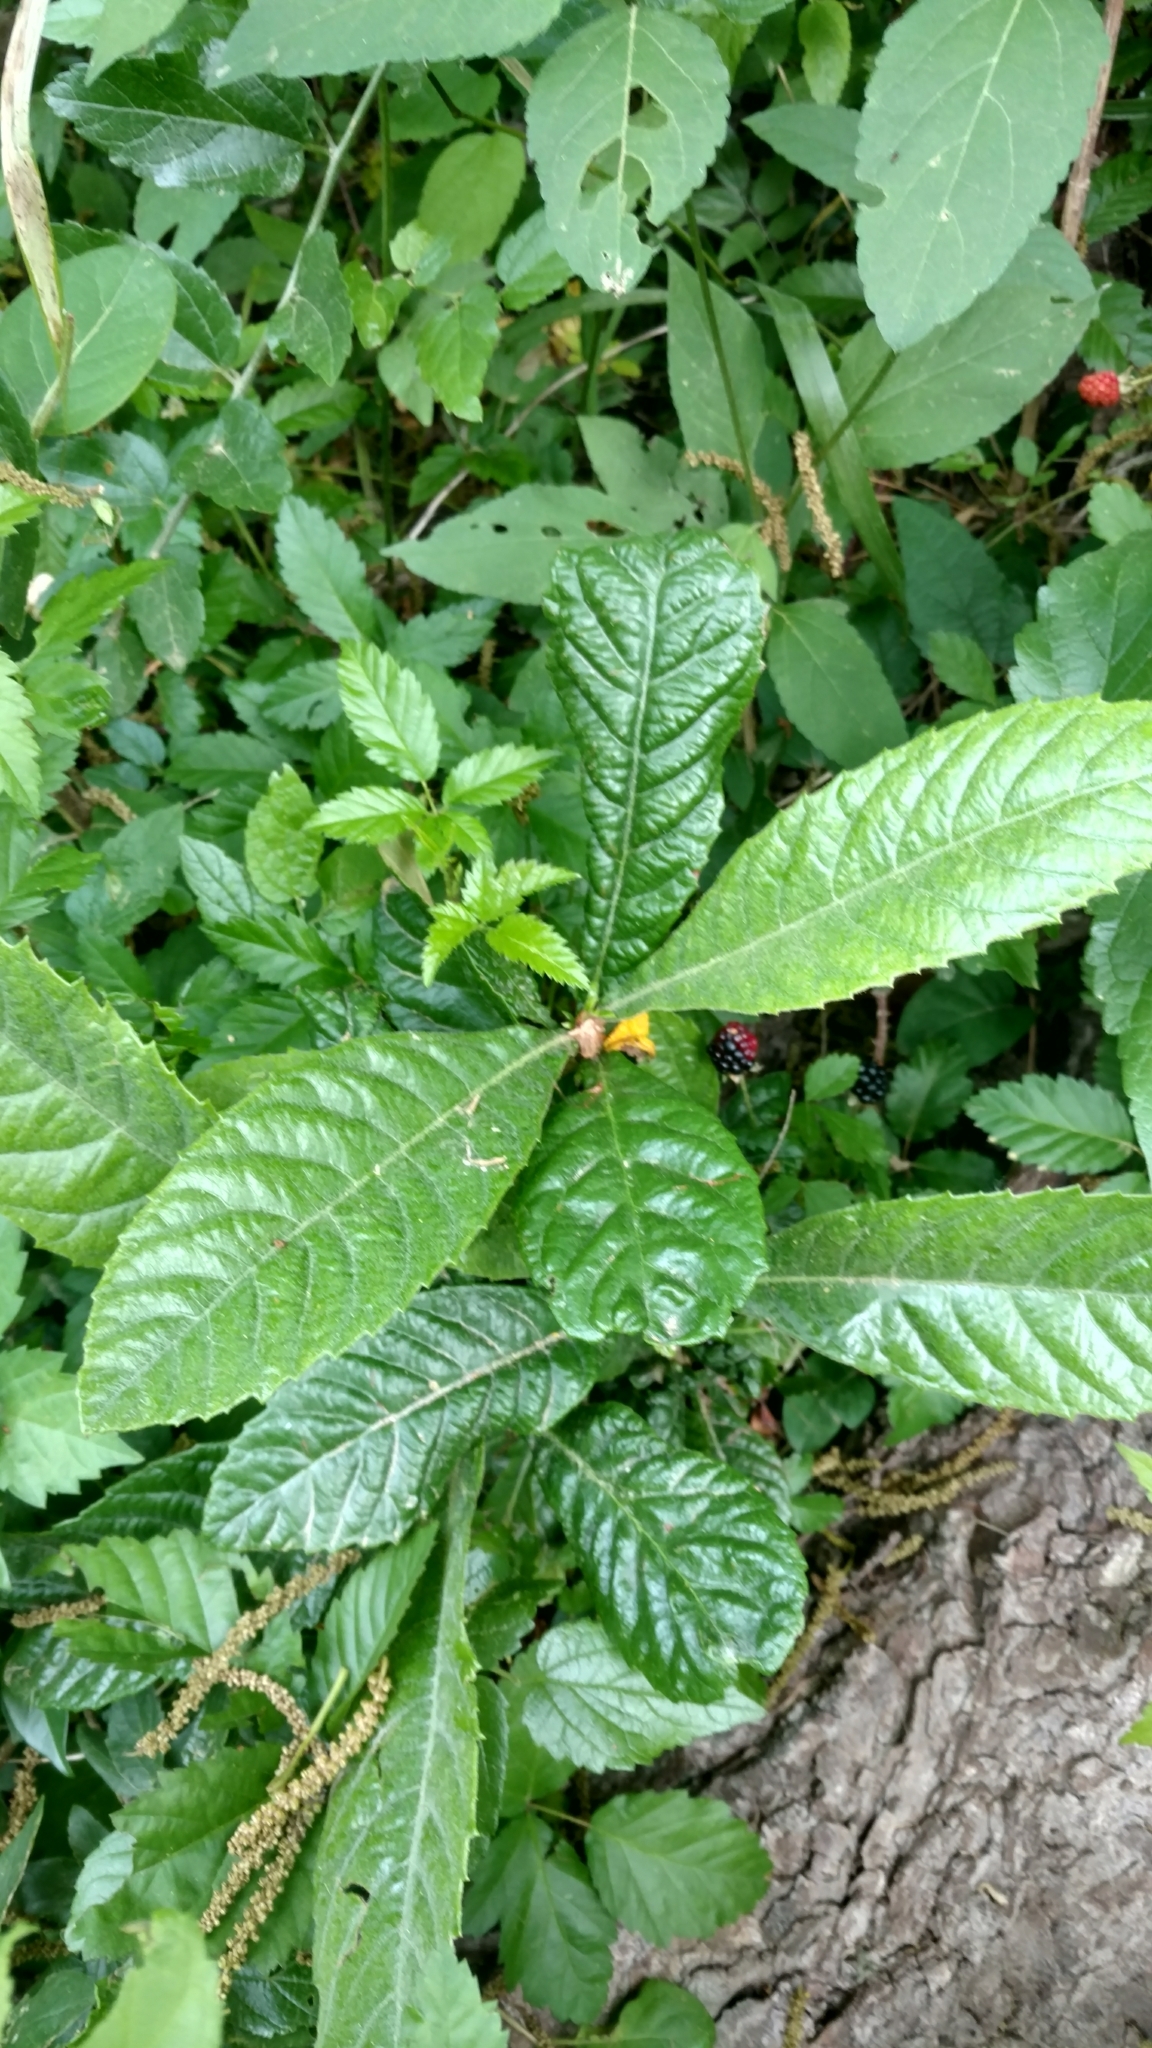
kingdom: Plantae
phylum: Tracheophyta
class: Magnoliopsida
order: Rosales
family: Rosaceae
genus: Rhaphiolepis
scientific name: Rhaphiolepis bibas
